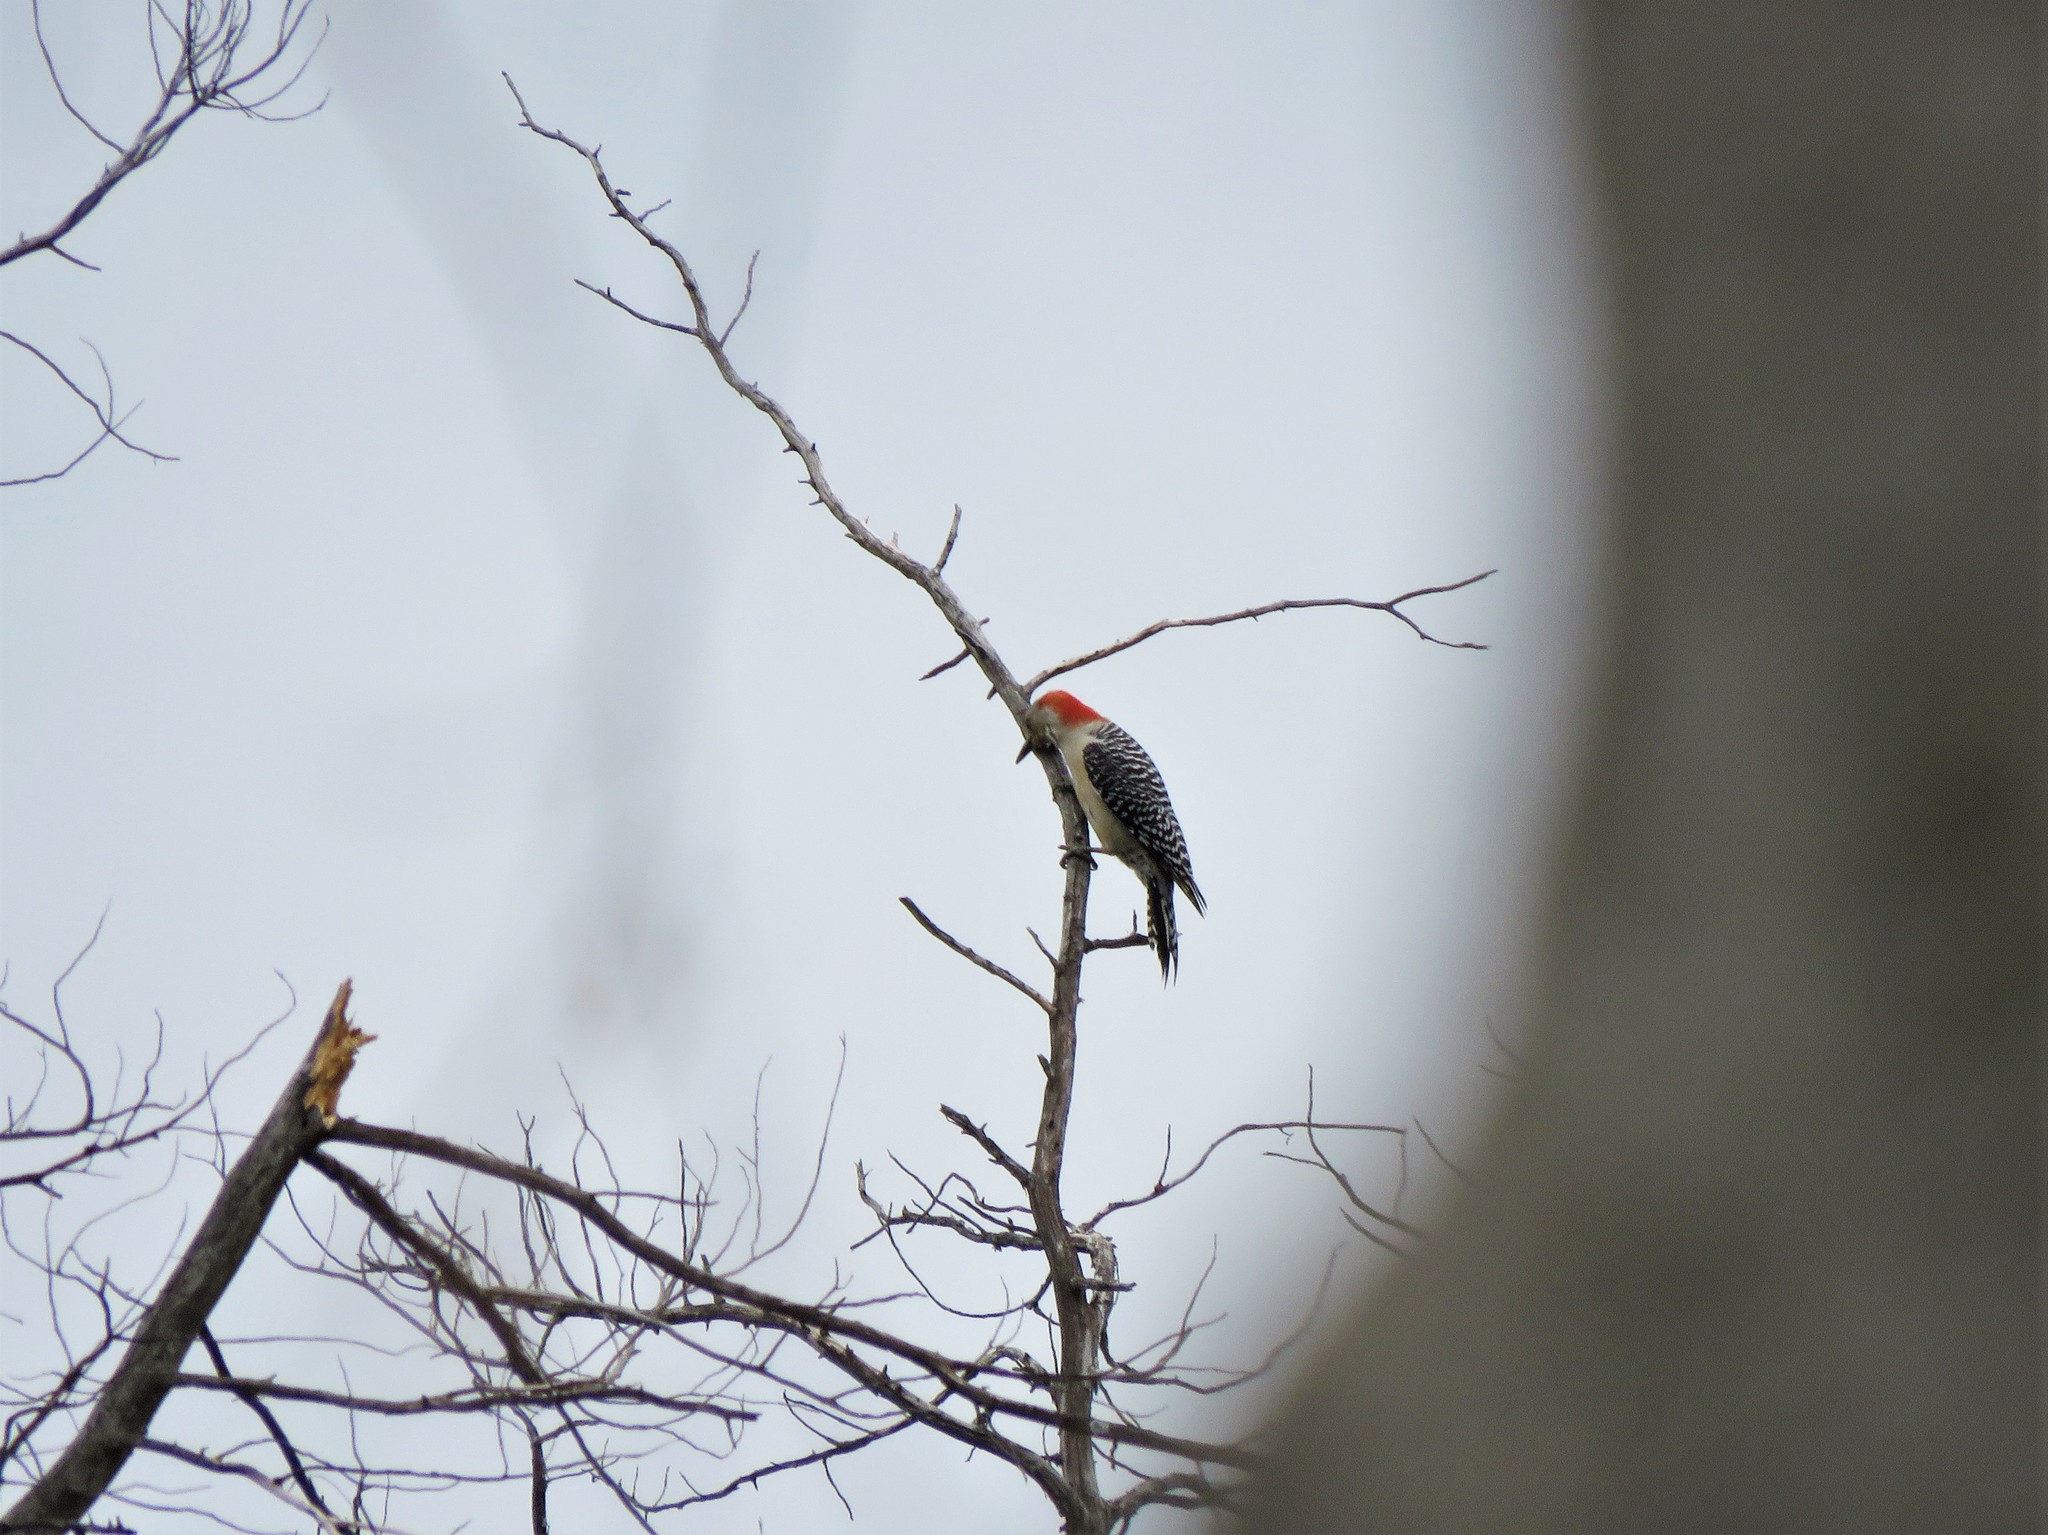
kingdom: Animalia
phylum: Chordata
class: Aves
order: Piciformes
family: Picidae
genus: Melanerpes
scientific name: Melanerpes carolinus
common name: Red-bellied woodpecker
